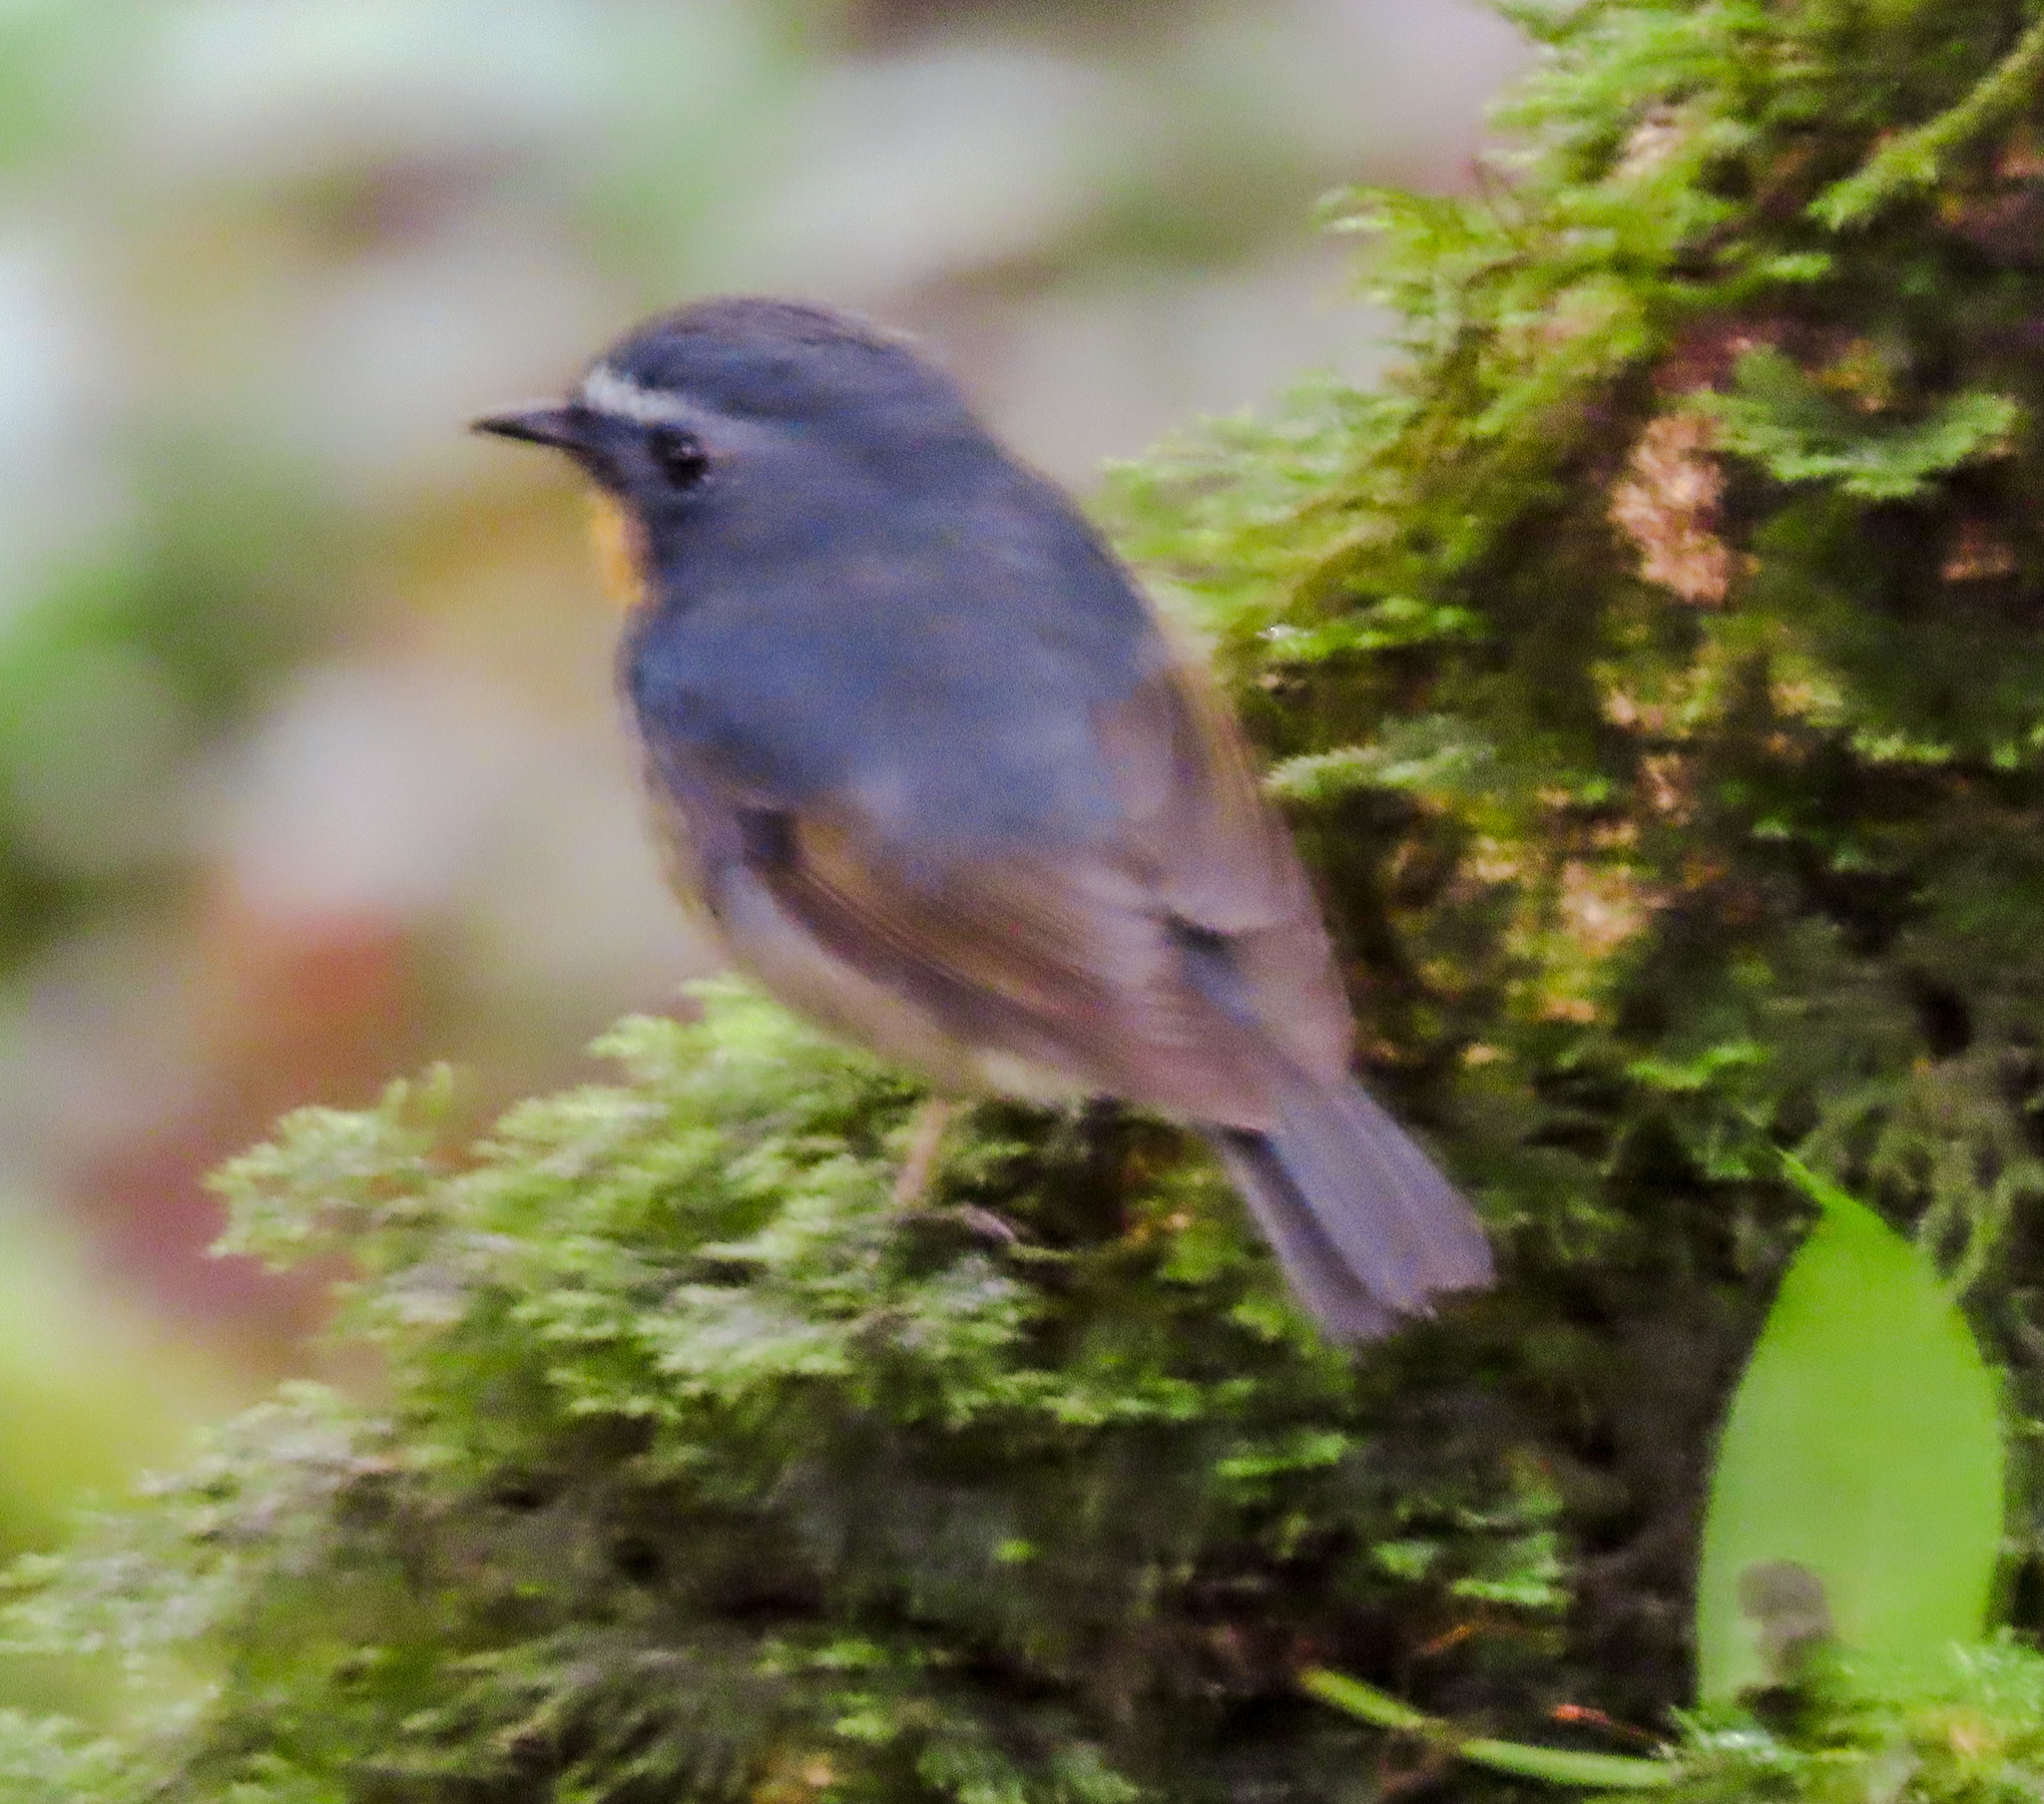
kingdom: Animalia
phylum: Chordata
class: Aves
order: Passeriformes
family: Muscicapidae
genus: Ficedula
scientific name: Ficedula hyperythra
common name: Snowy-browed flycatcher
